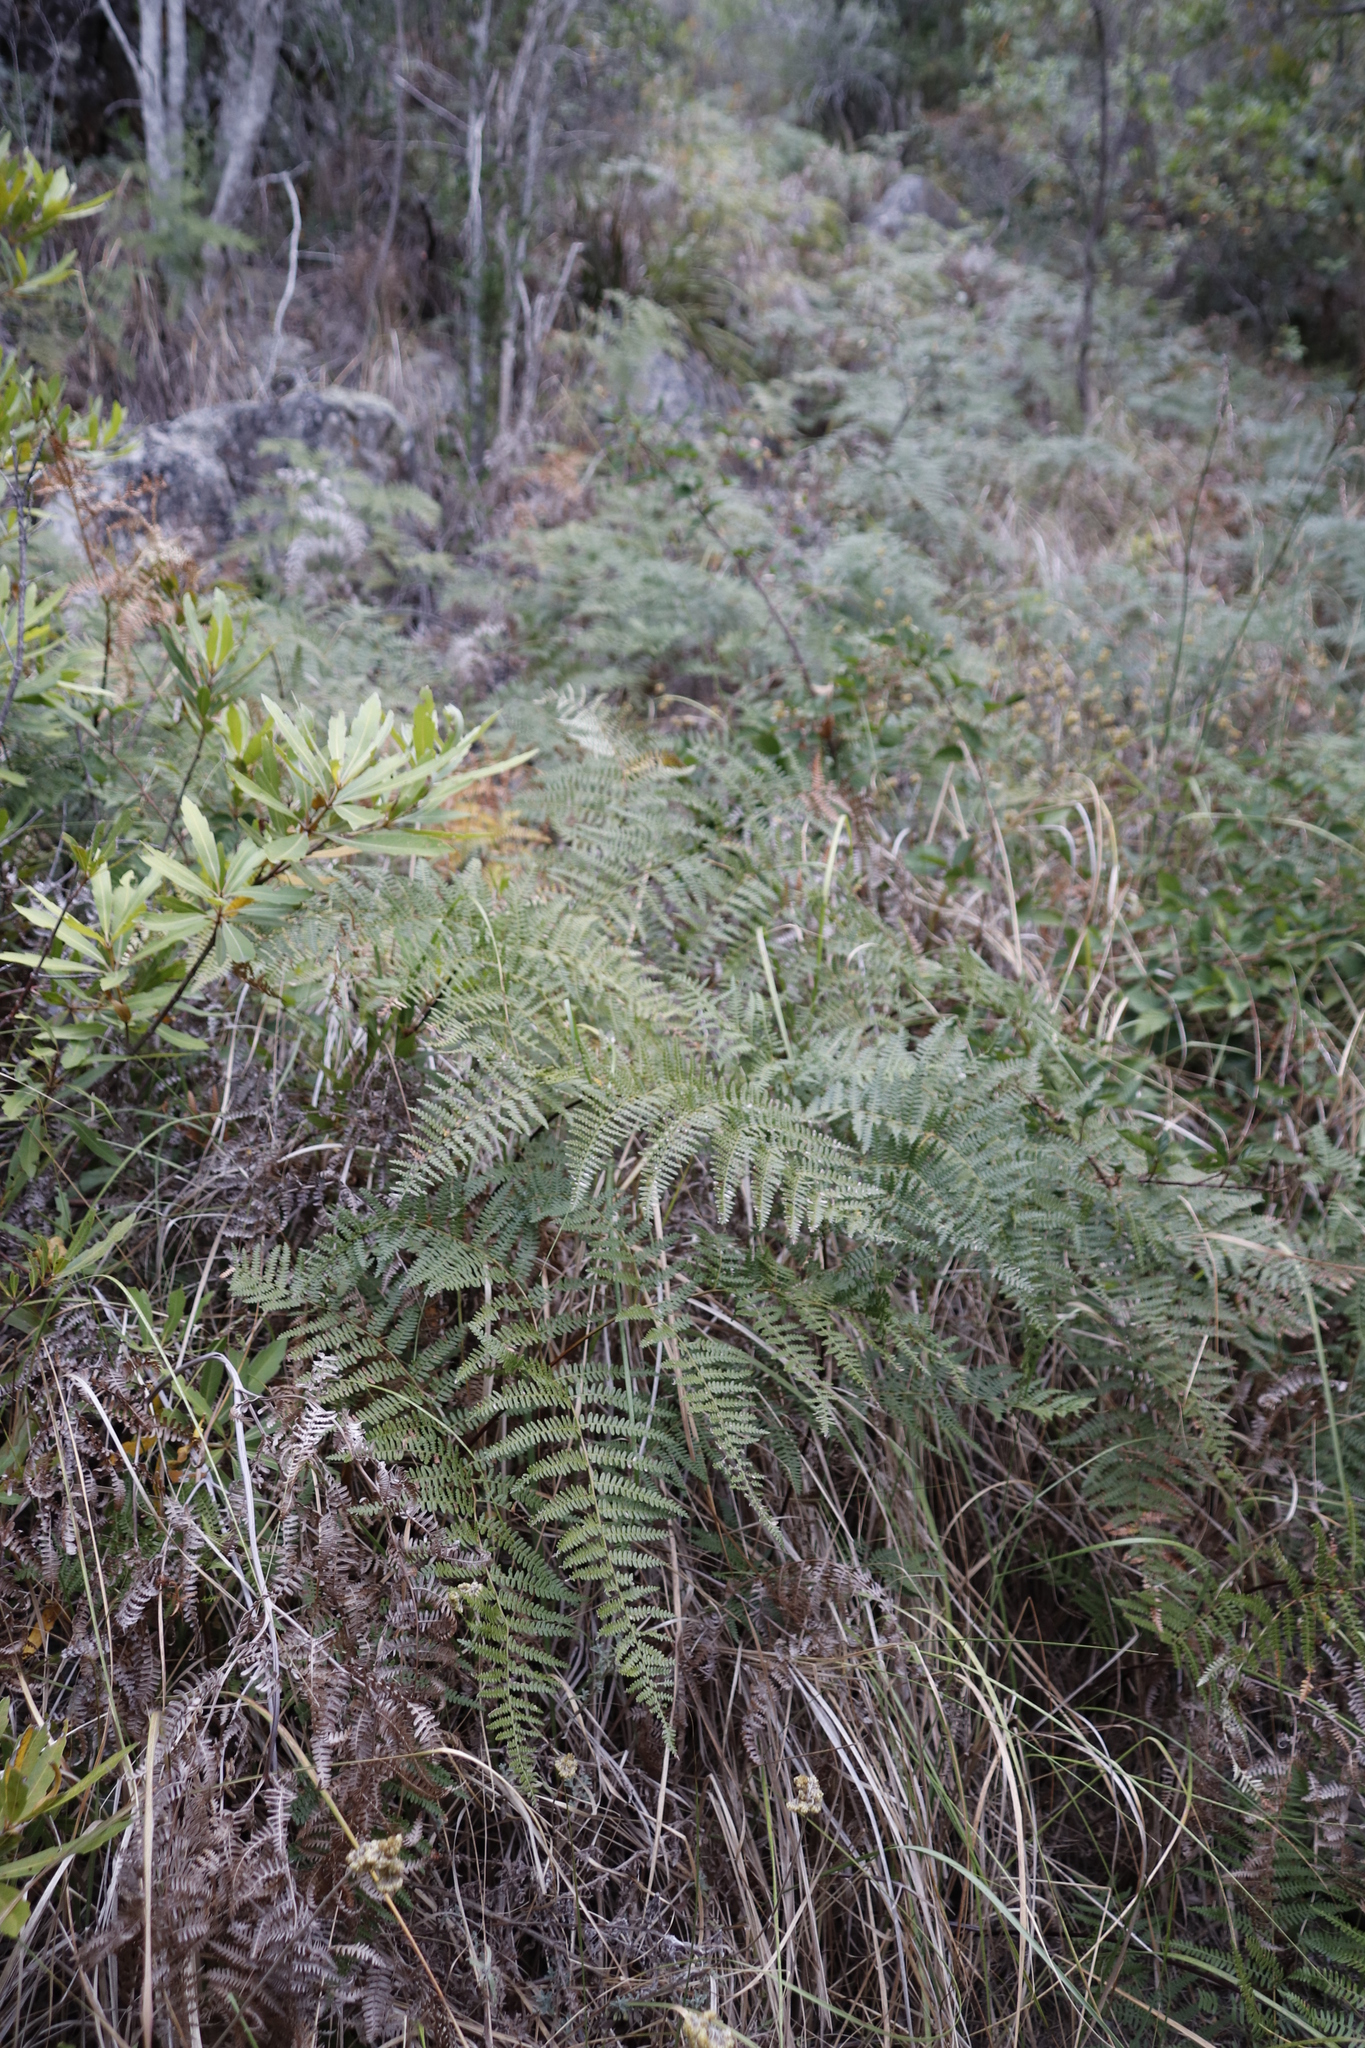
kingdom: Plantae
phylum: Tracheophyta
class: Polypodiopsida
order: Polypodiales
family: Dennstaedtiaceae
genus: Pteridium
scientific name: Pteridium aquilinum
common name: Bracken
